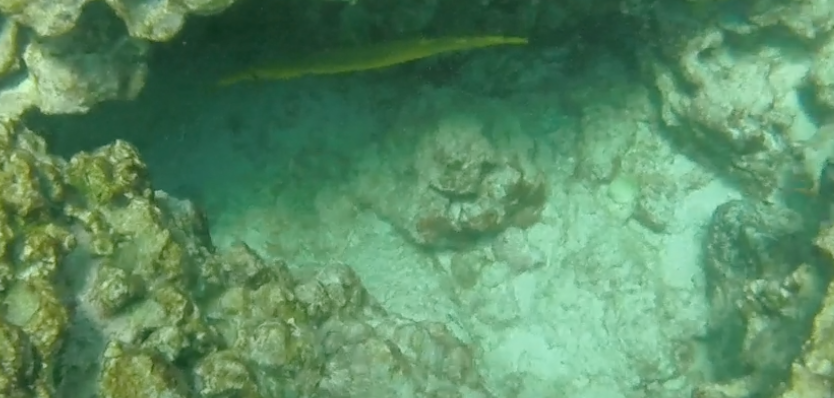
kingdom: Animalia
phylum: Chordata
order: Syngnathiformes
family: Aulostomidae
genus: Aulostomus
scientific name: Aulostomus chinensis
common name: Chinese trumpetfish
